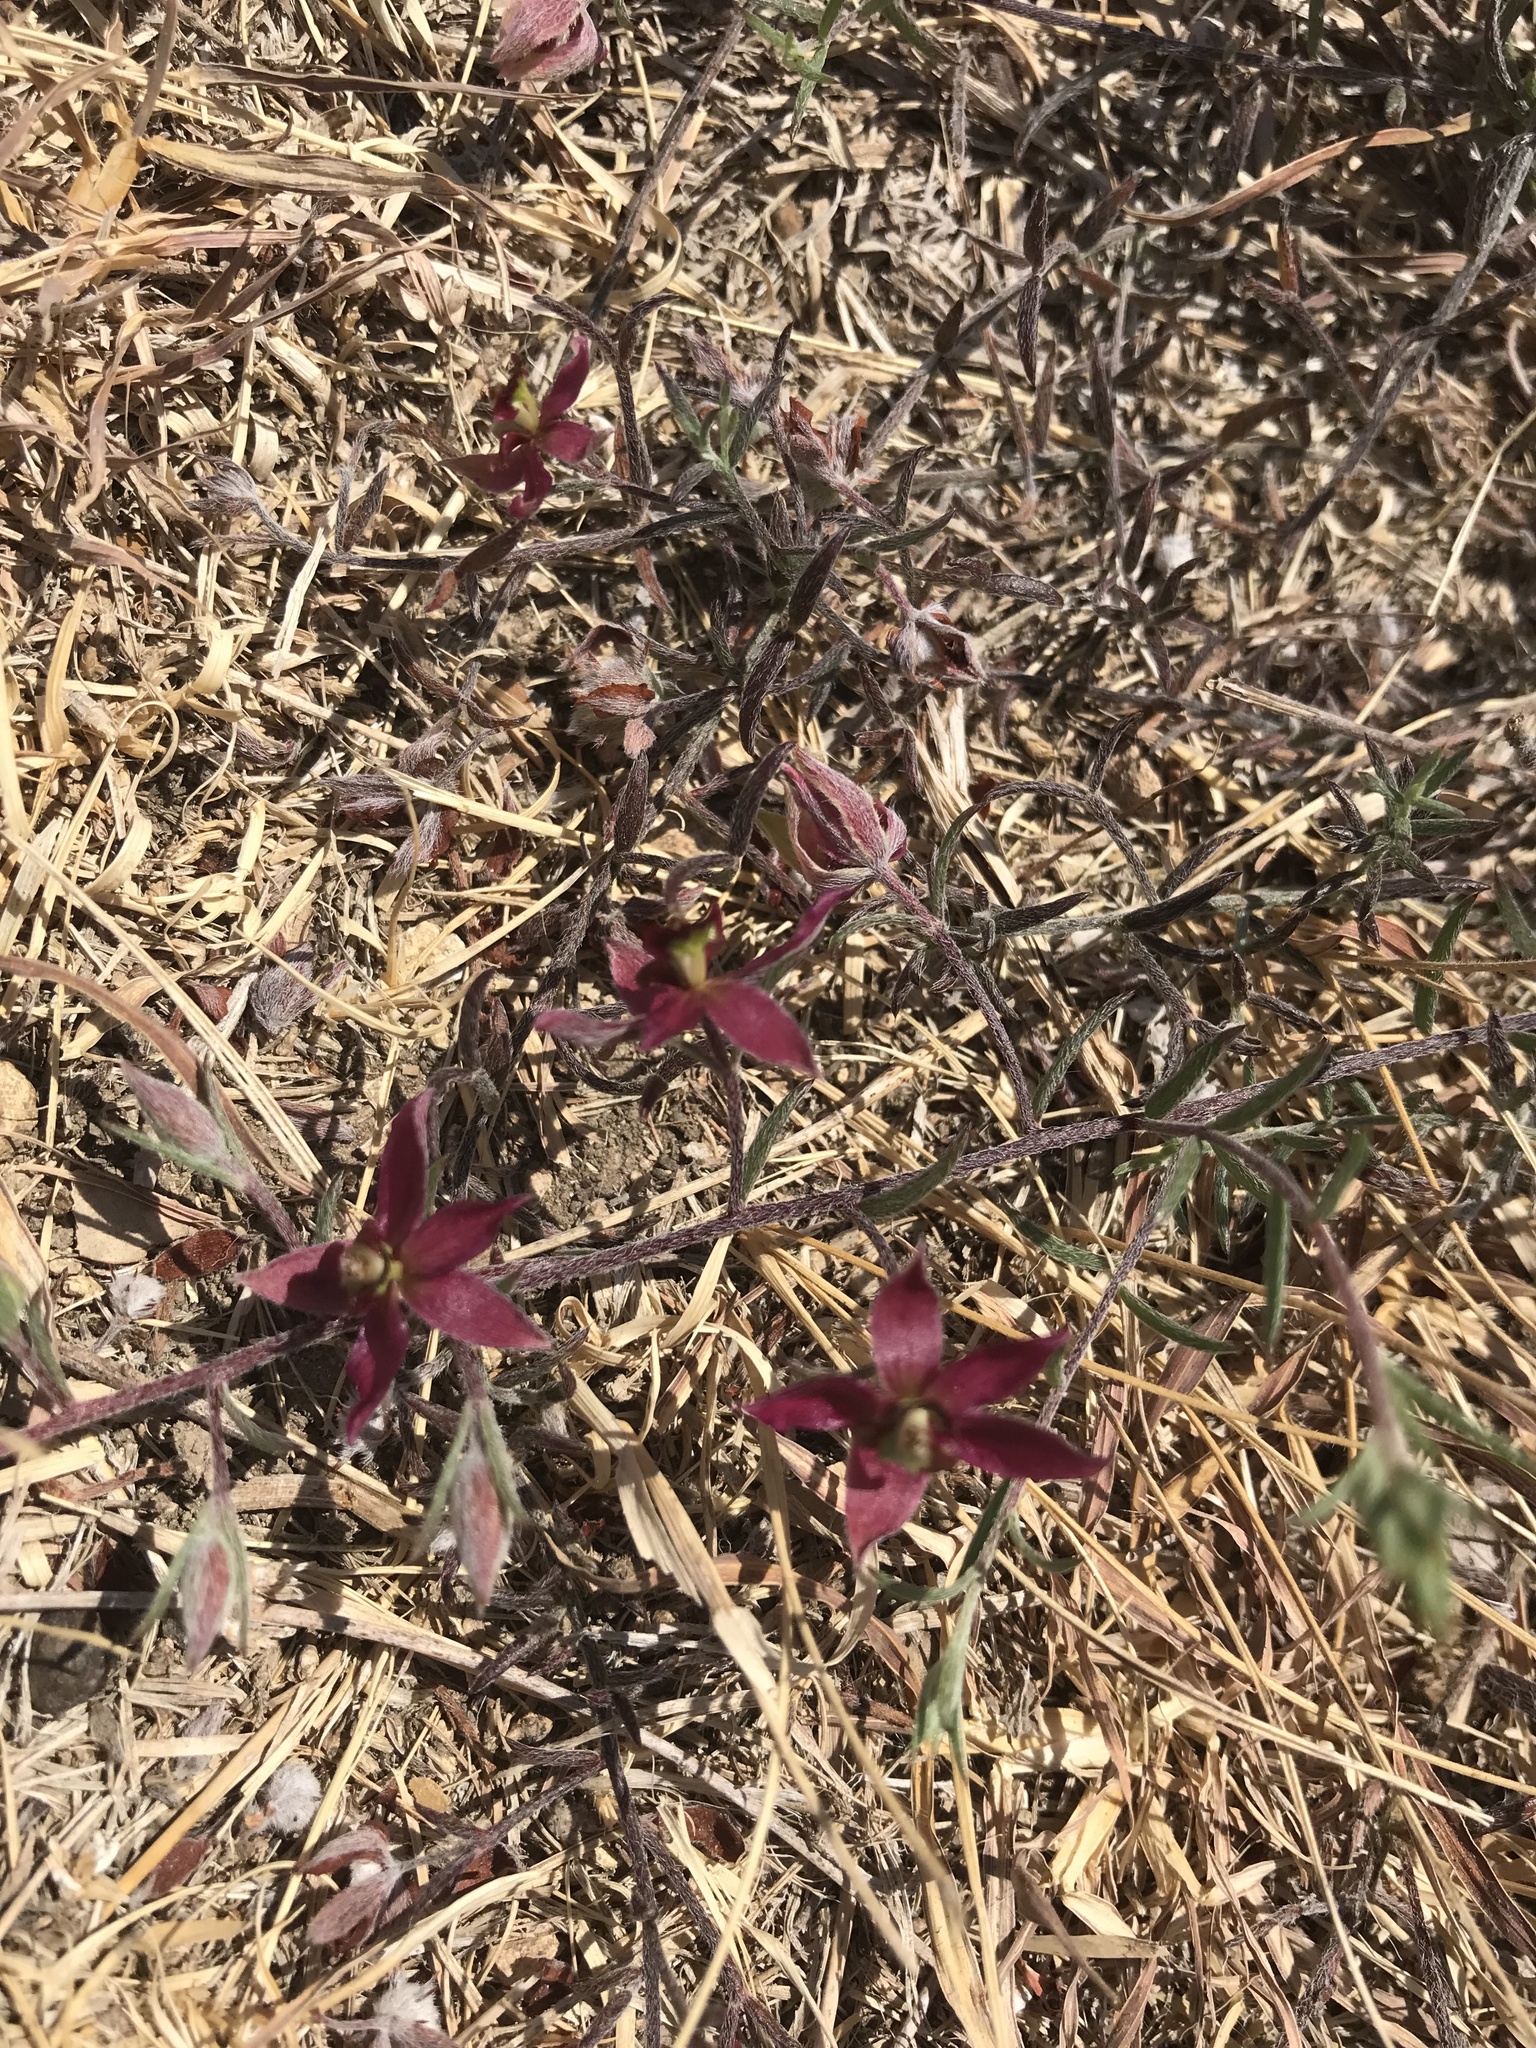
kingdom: Plantae
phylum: Tracheophyta
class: Magnoliopsida
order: Zygophyllales
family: Krameriaceae
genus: Krameria
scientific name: Krameria lanceolata
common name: Ratany
